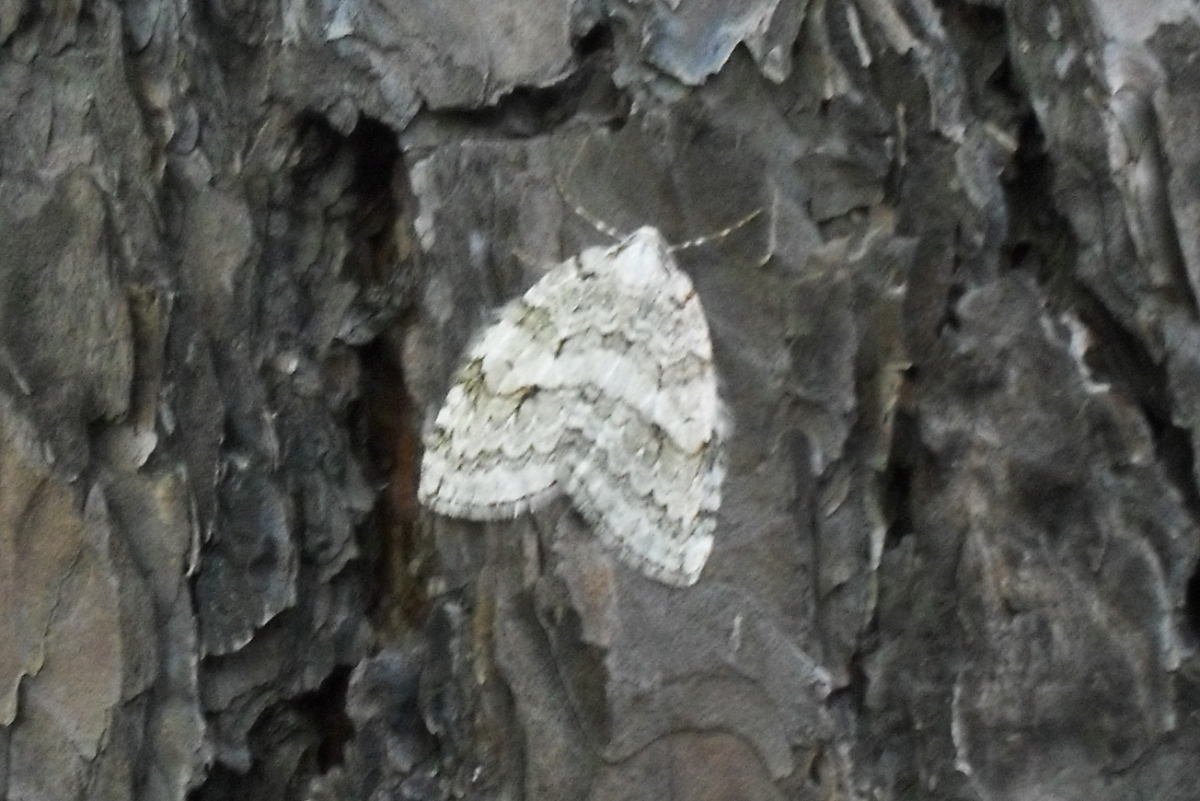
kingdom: Animalia
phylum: Arthropoda
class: Insecta
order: Lepidoptera
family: Geometridae
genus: Epirrita
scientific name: Epirrita autumnata
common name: Autumnal moth
